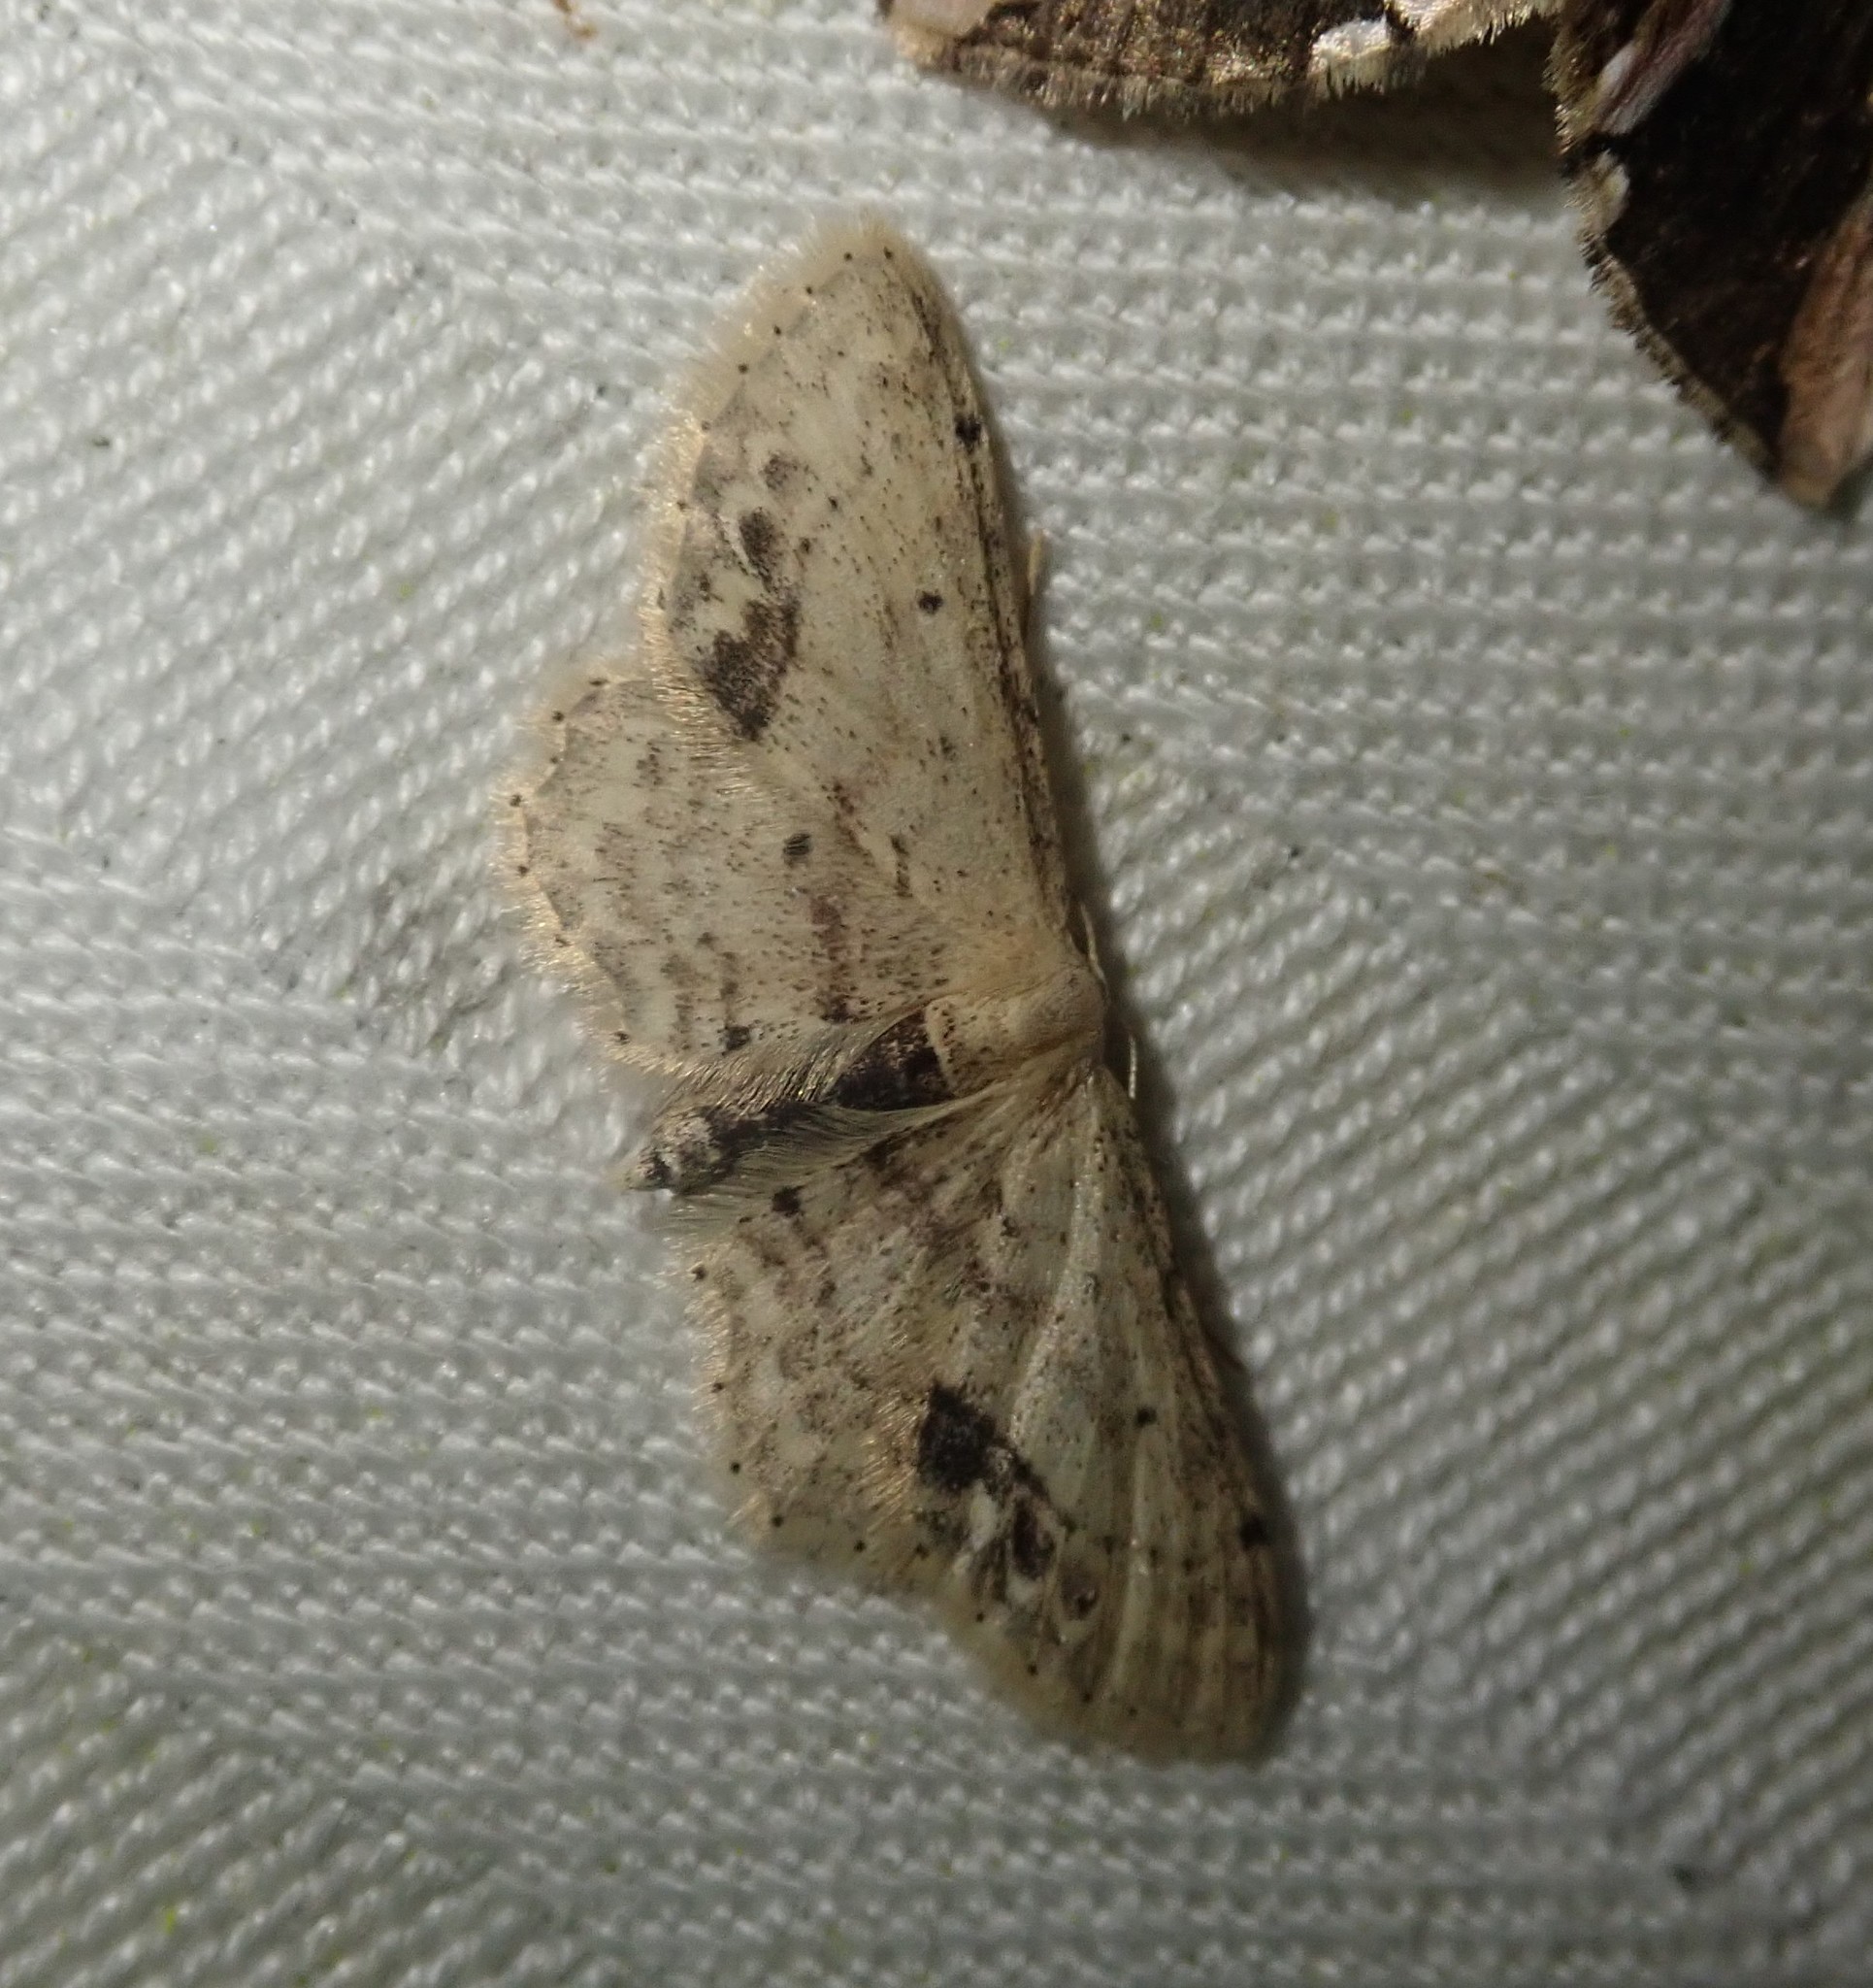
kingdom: Animalia
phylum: Arthropoda
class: Insecta
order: Lepidoptera
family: Geometridae
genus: Idaea
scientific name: Idaea dimidiata
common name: Single-dotted wave
